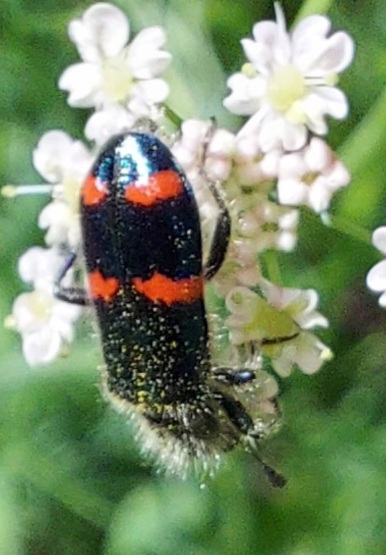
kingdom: Animalia
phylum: Arthropoda
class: Insecta
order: Coleoptera
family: Cleridae
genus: Trichodes
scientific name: Trichodes
